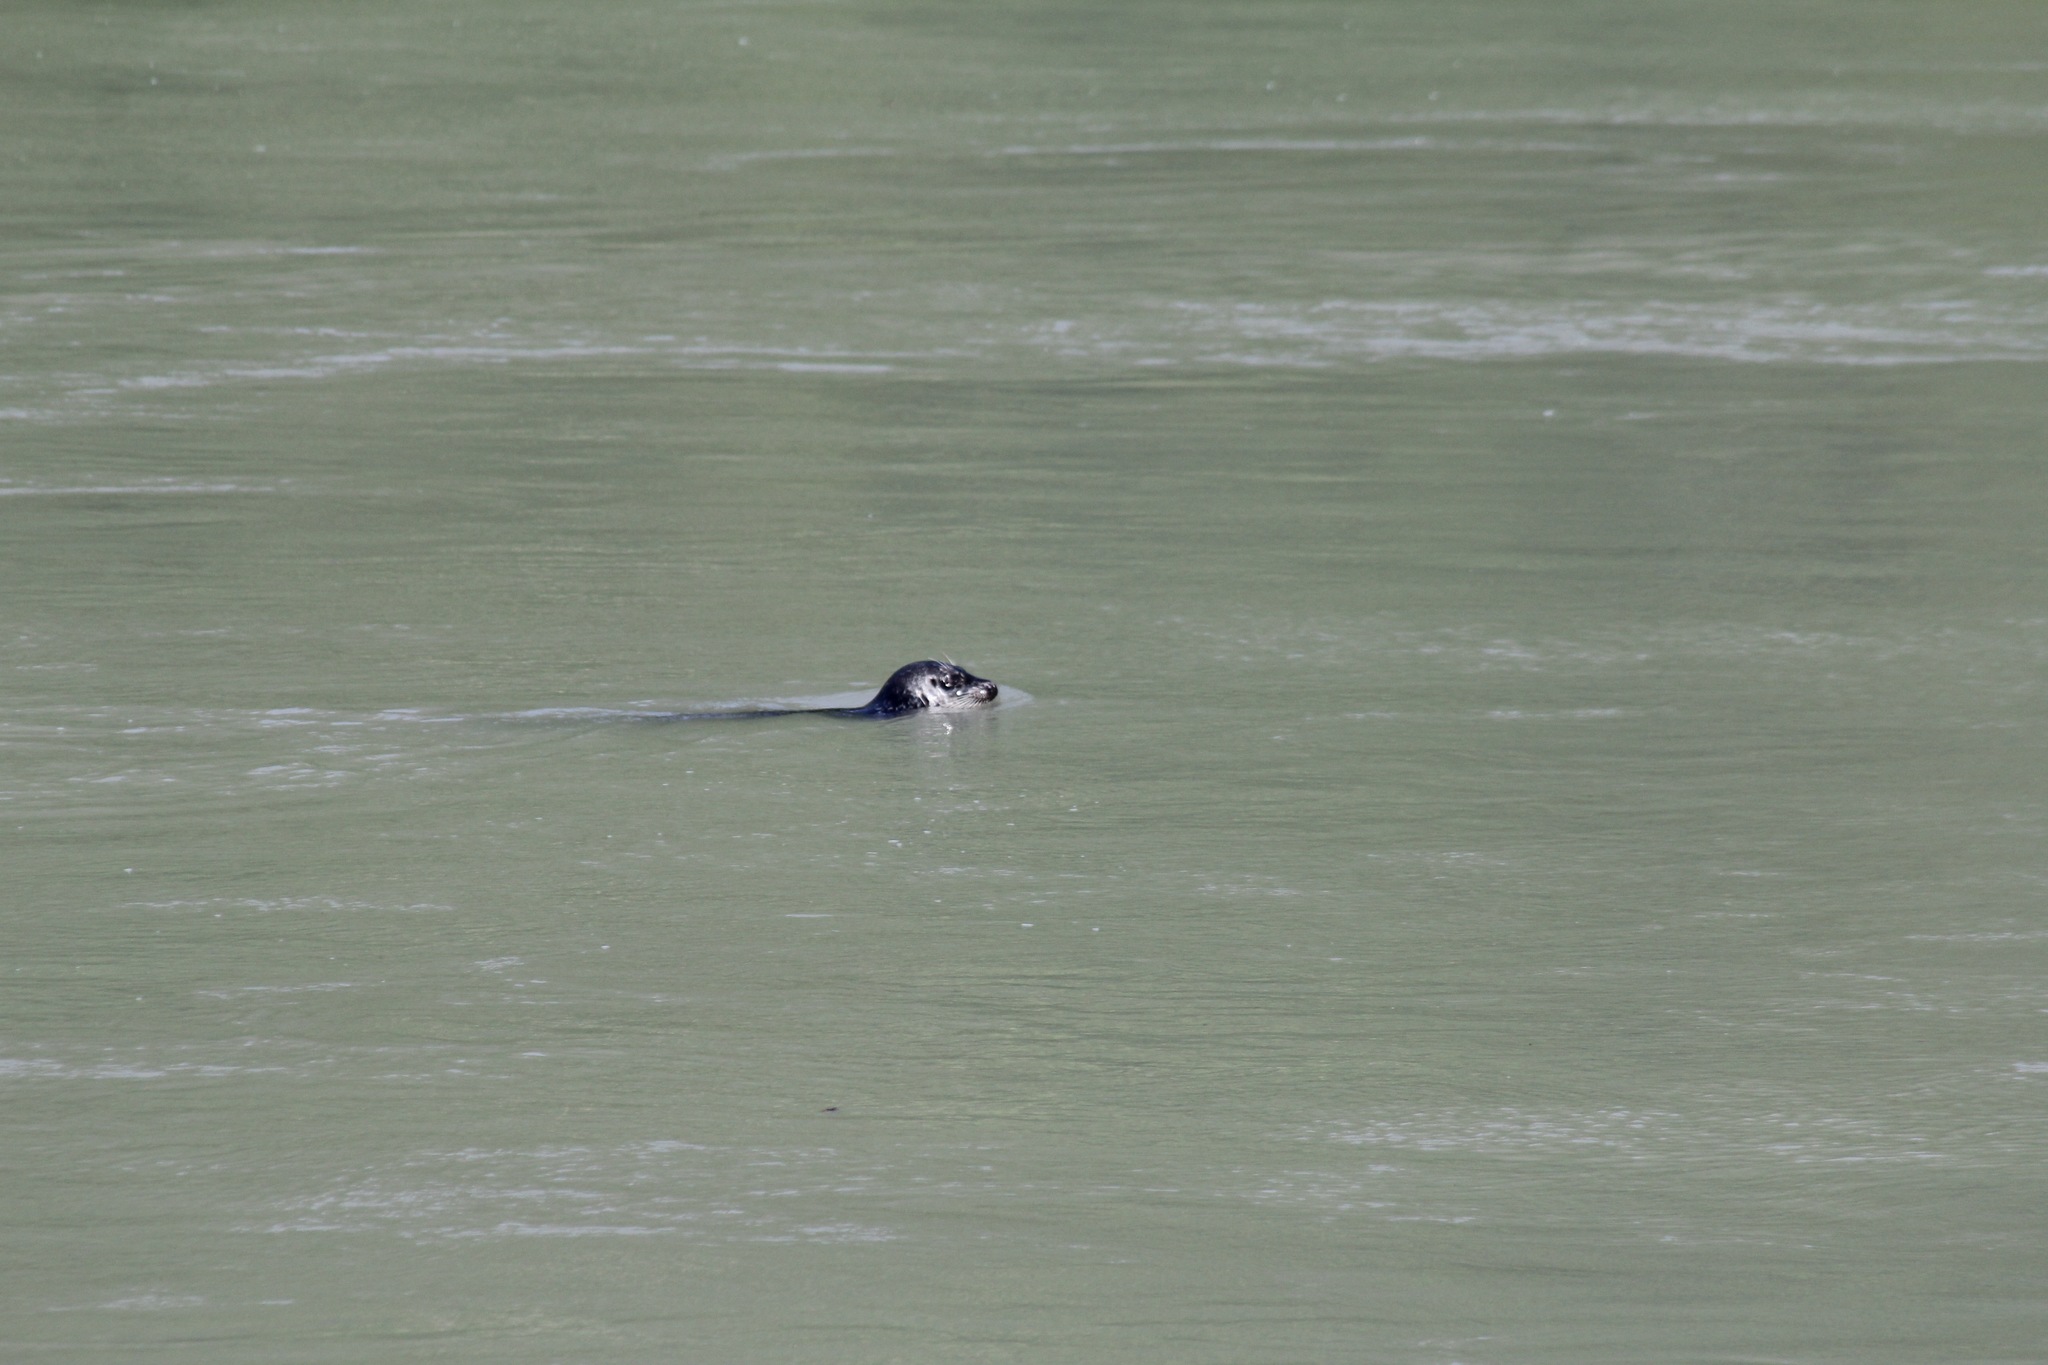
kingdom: Animalia
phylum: Chordata
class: Mammalia
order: Carnivora
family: Phocidae
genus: Phoca
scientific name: Phoca vitulina
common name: Harbor seal
